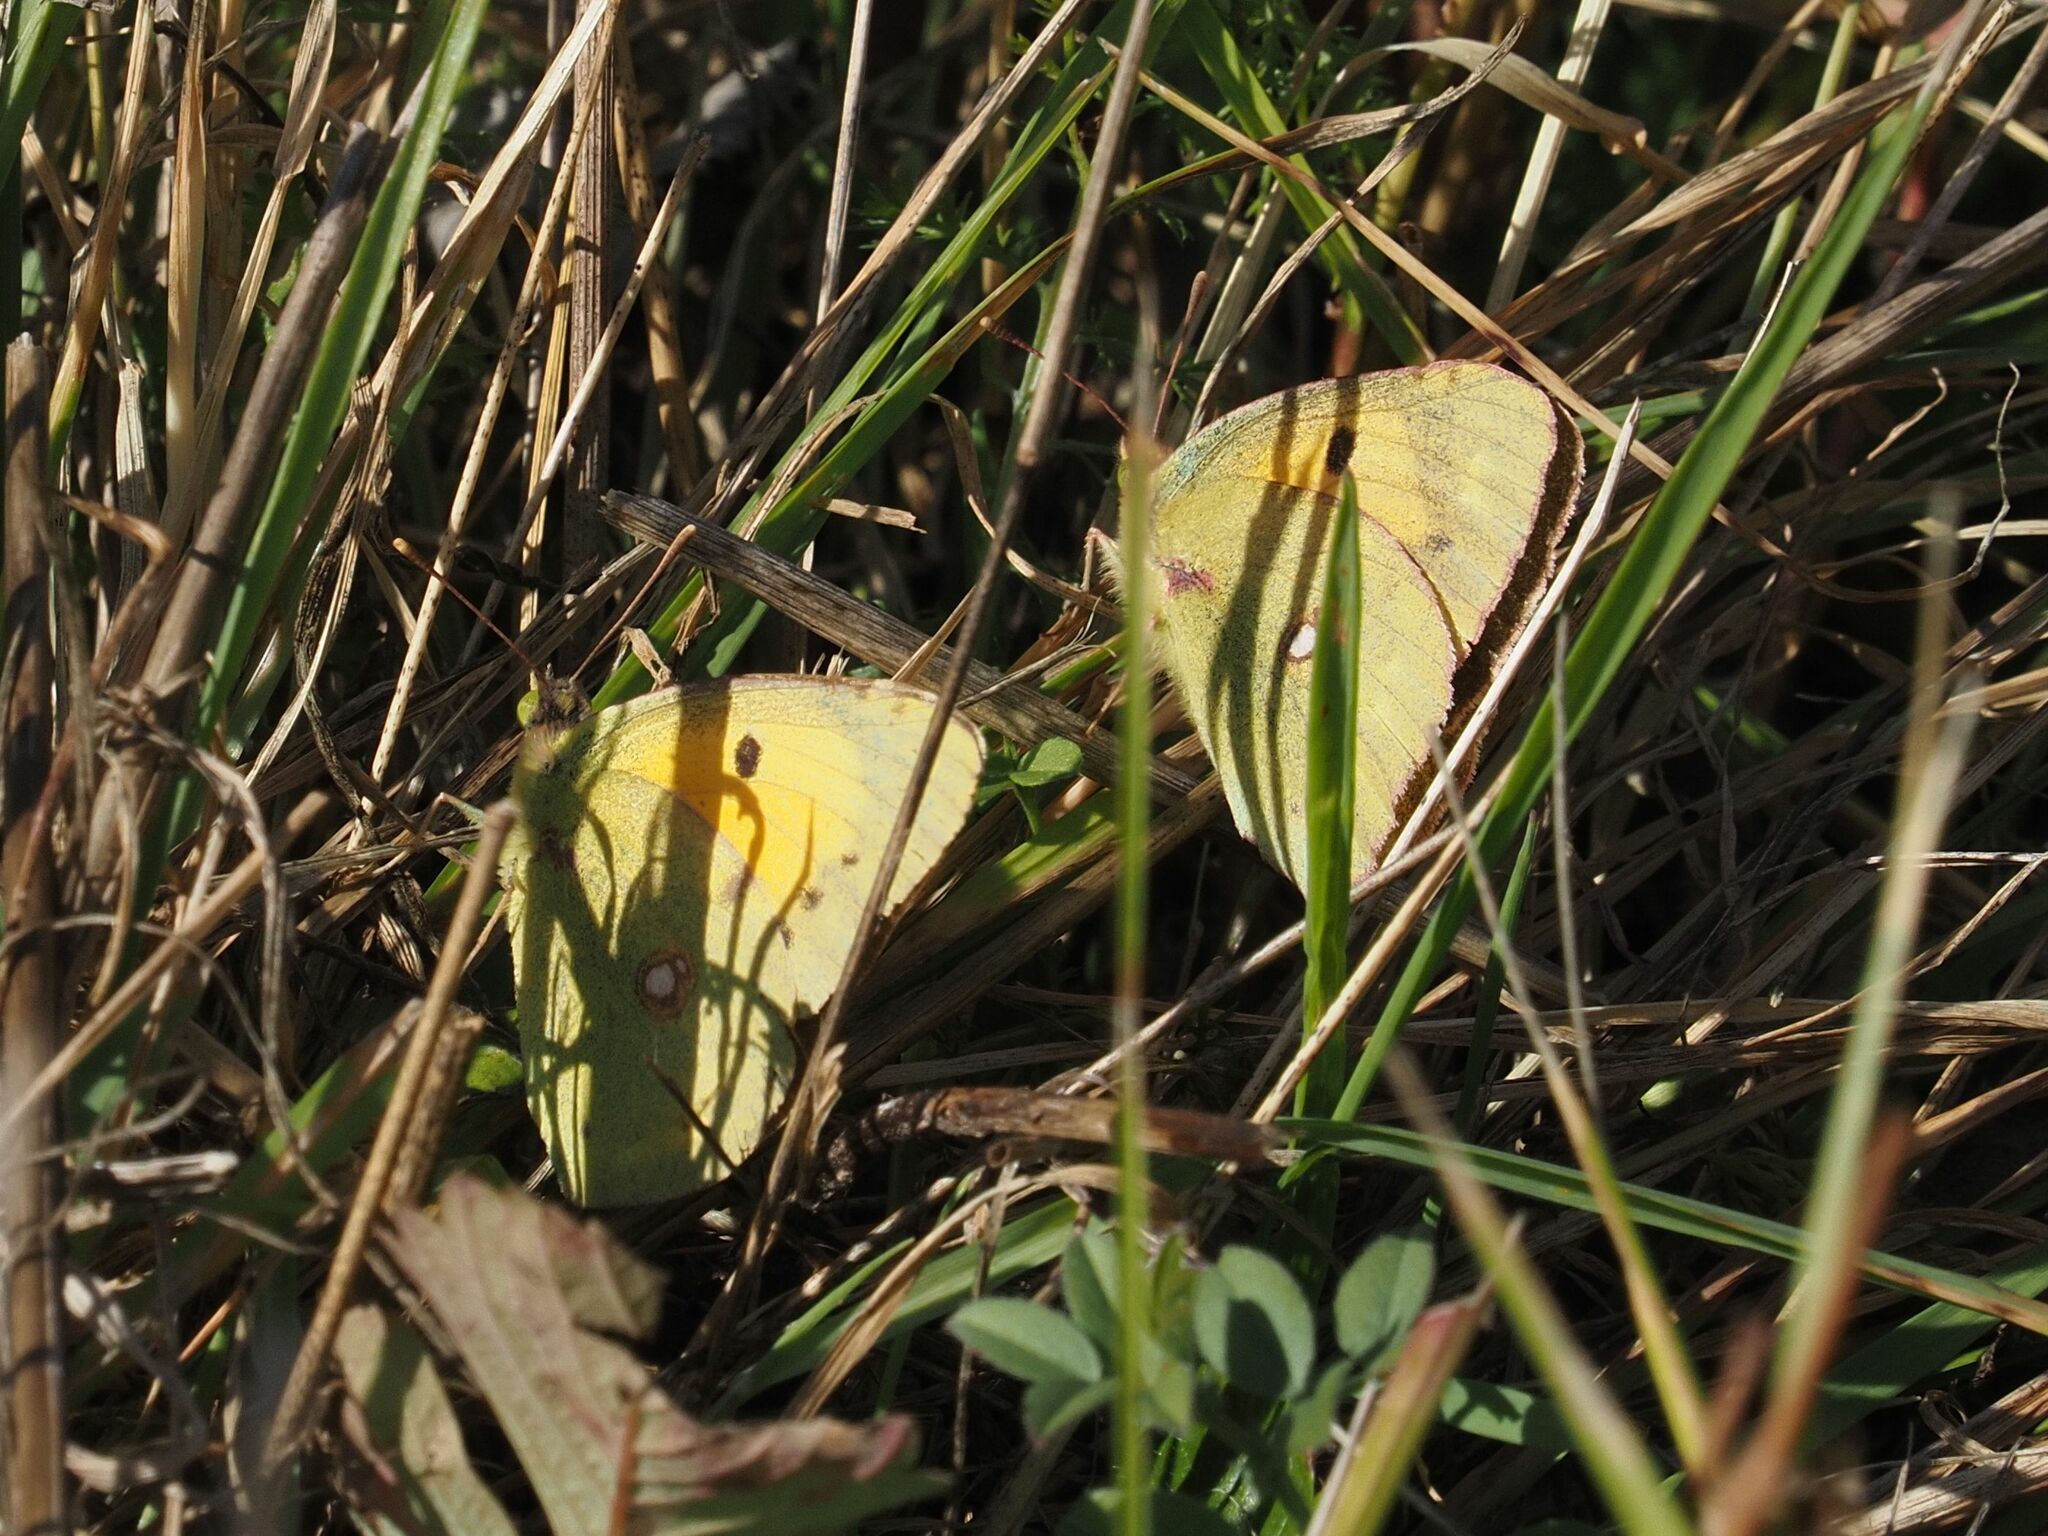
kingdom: Animalia
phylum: Arthropoda
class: Insecta
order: Lepidoptera
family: Pieridae
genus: Colias
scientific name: Colias croceus
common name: Clouded yellow
